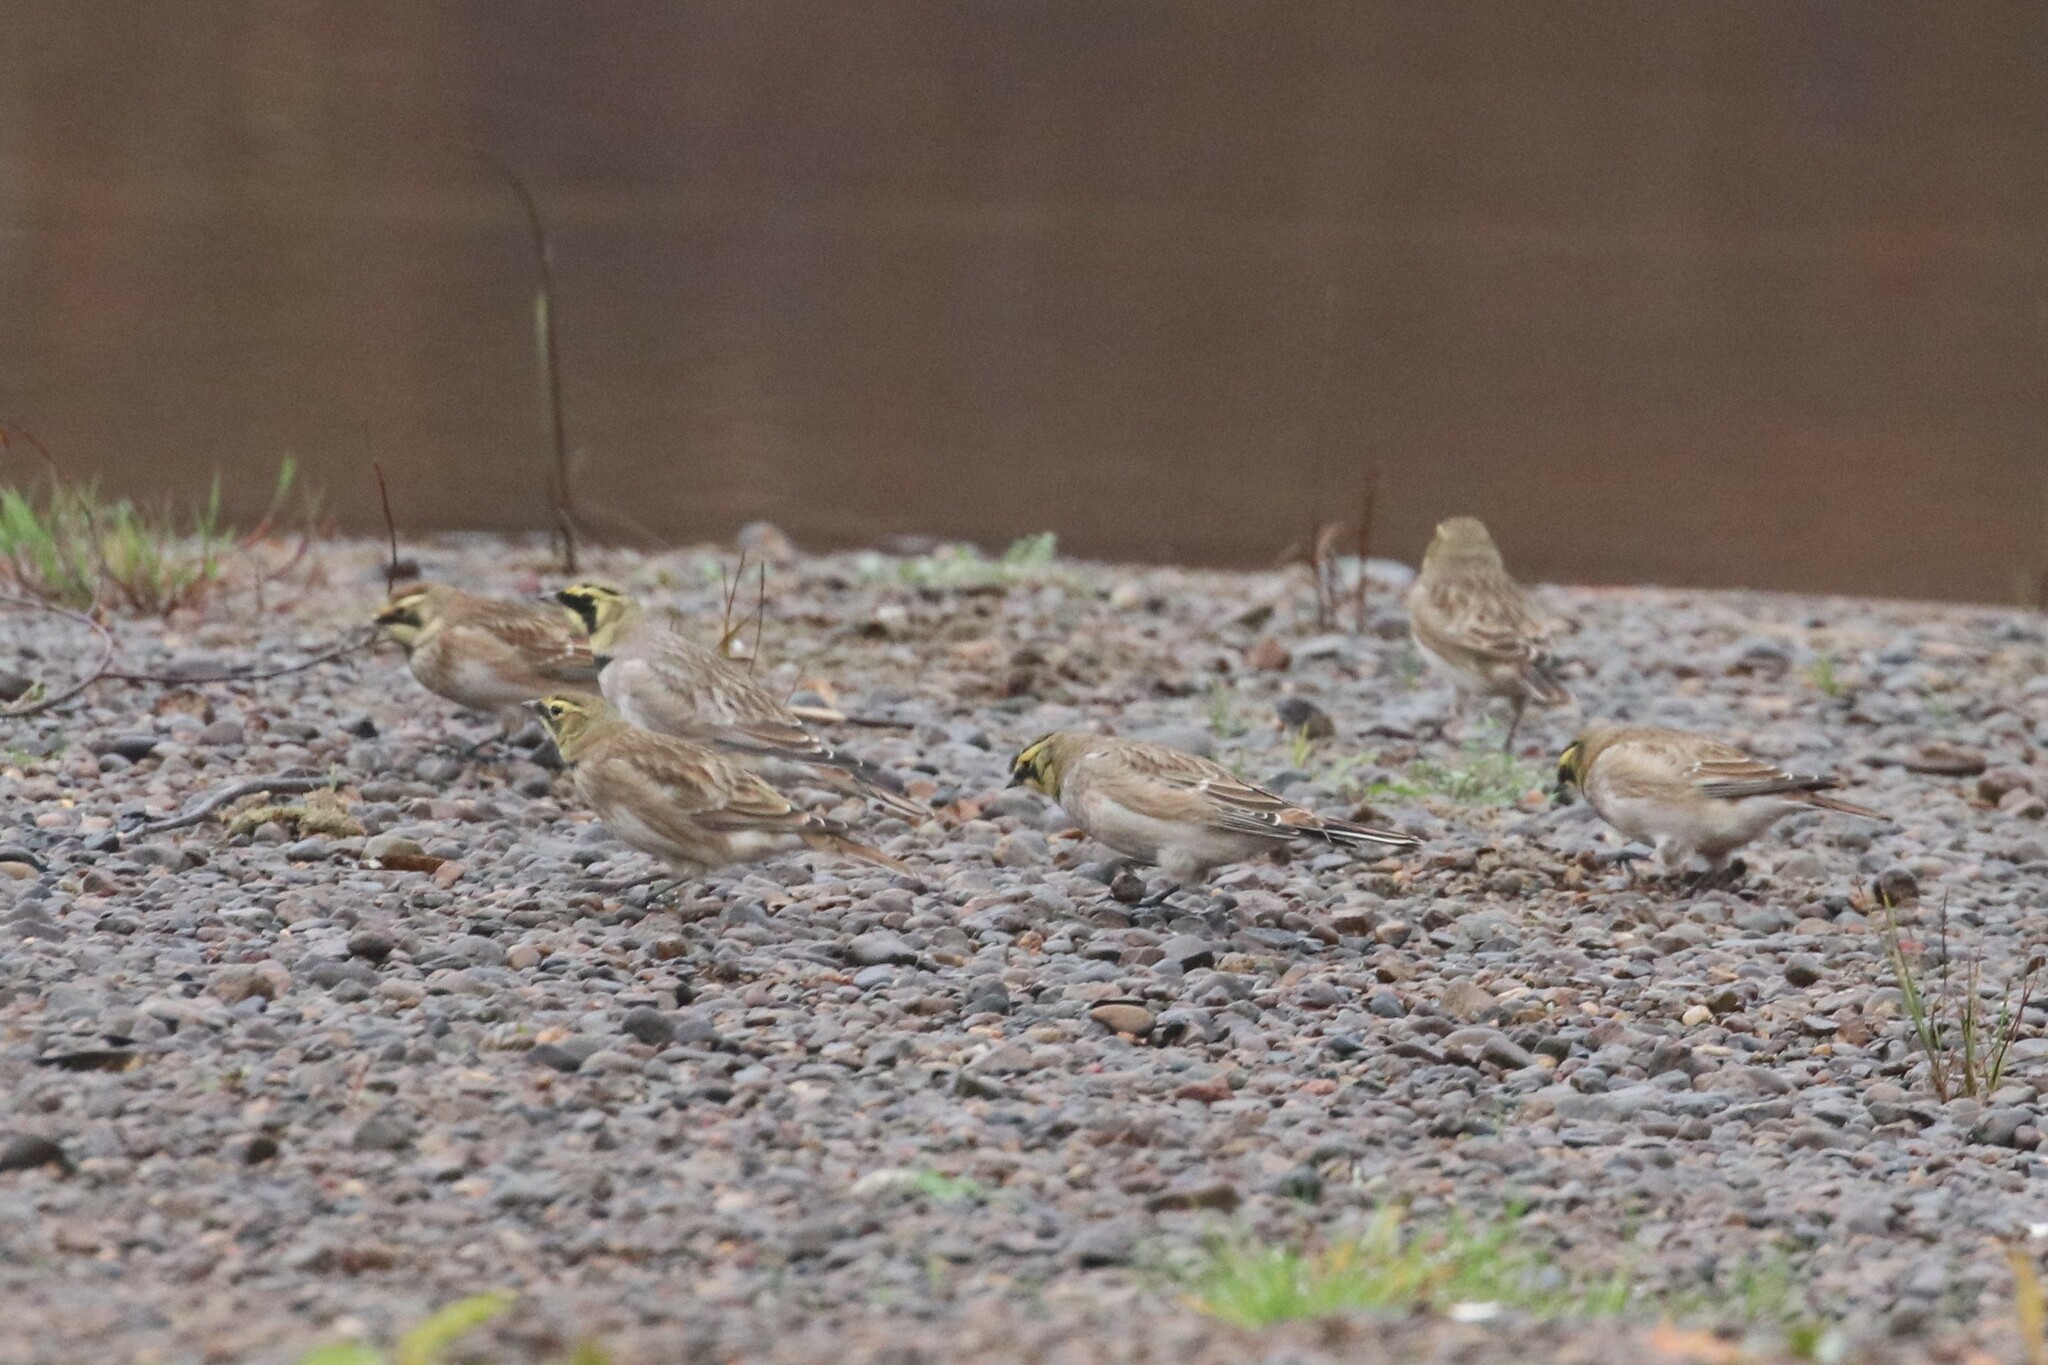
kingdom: Animalia
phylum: Chordata
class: Aves
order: Passeriformes
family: Alaudidae
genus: Eremophila
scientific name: Eremophila alpestris
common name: Horned lark
